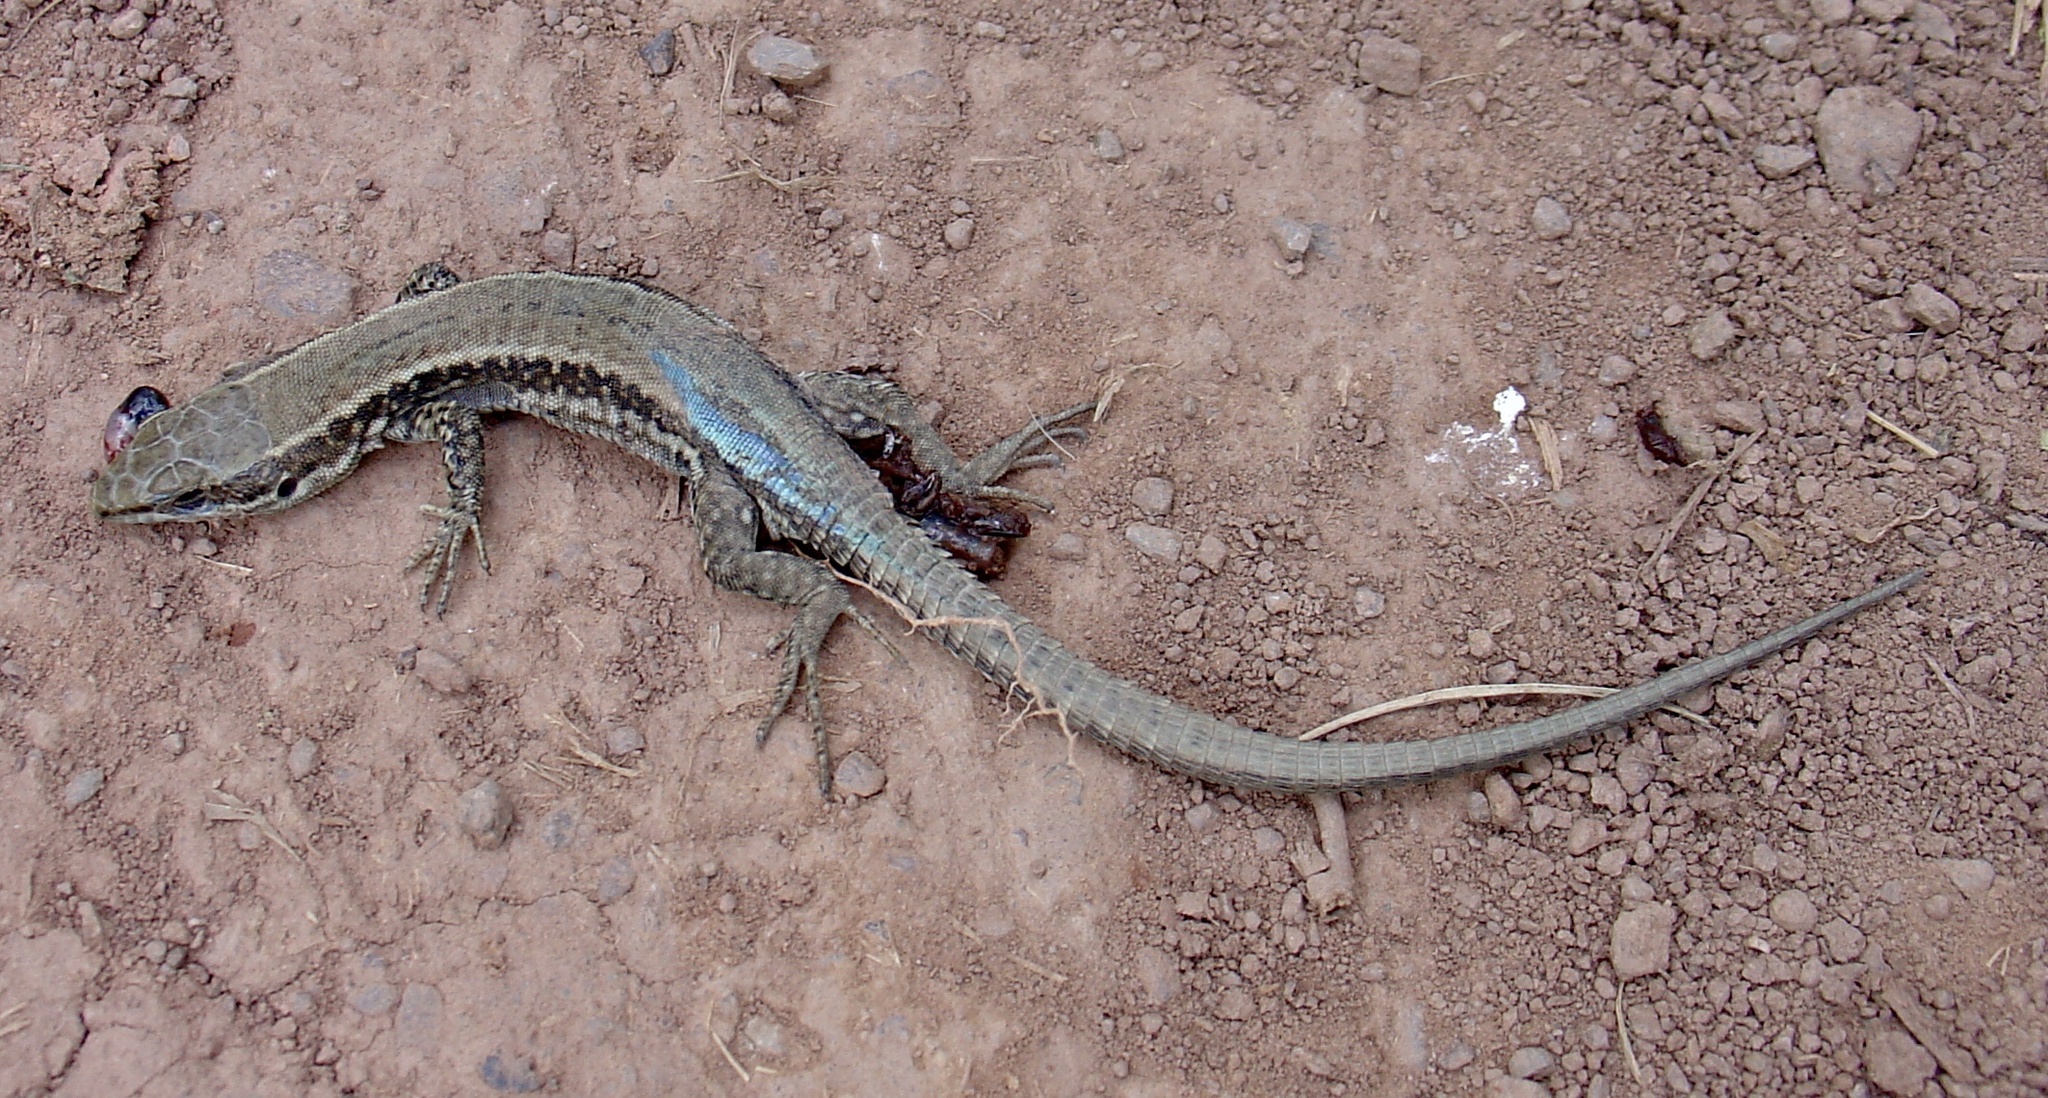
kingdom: Animalia
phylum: Chordata
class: Squamata
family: Lacertidae
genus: Podarcis
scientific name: Podarcis muralis
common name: Common wall lizard
